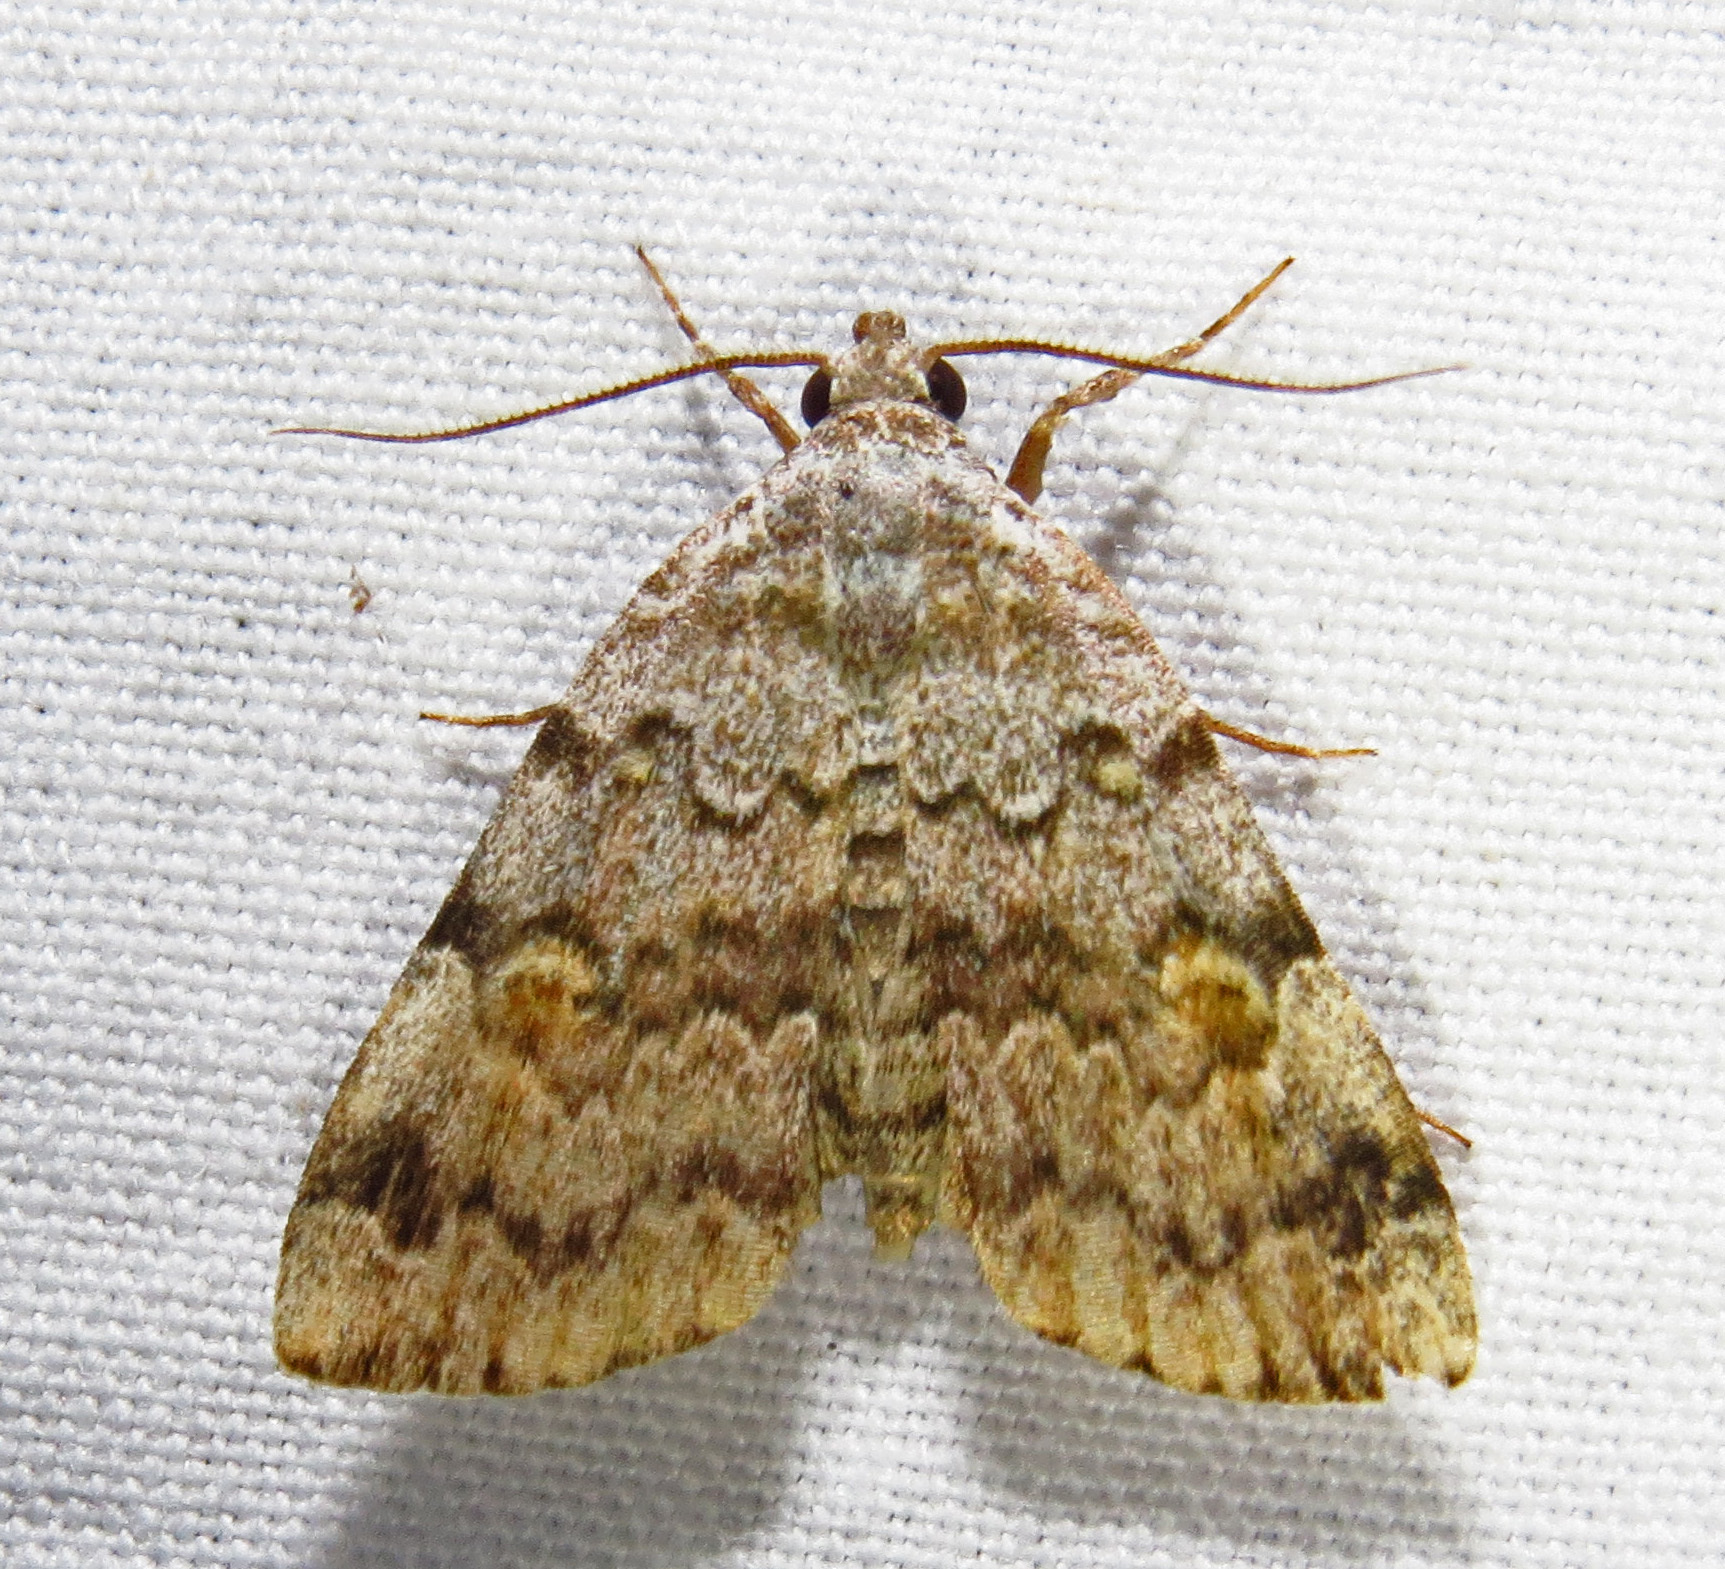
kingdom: Animalia
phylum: Arthropoda
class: Insecta
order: Lepidoptera
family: Erebidae
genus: Idia
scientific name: Idia americalis
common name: American idia moth
